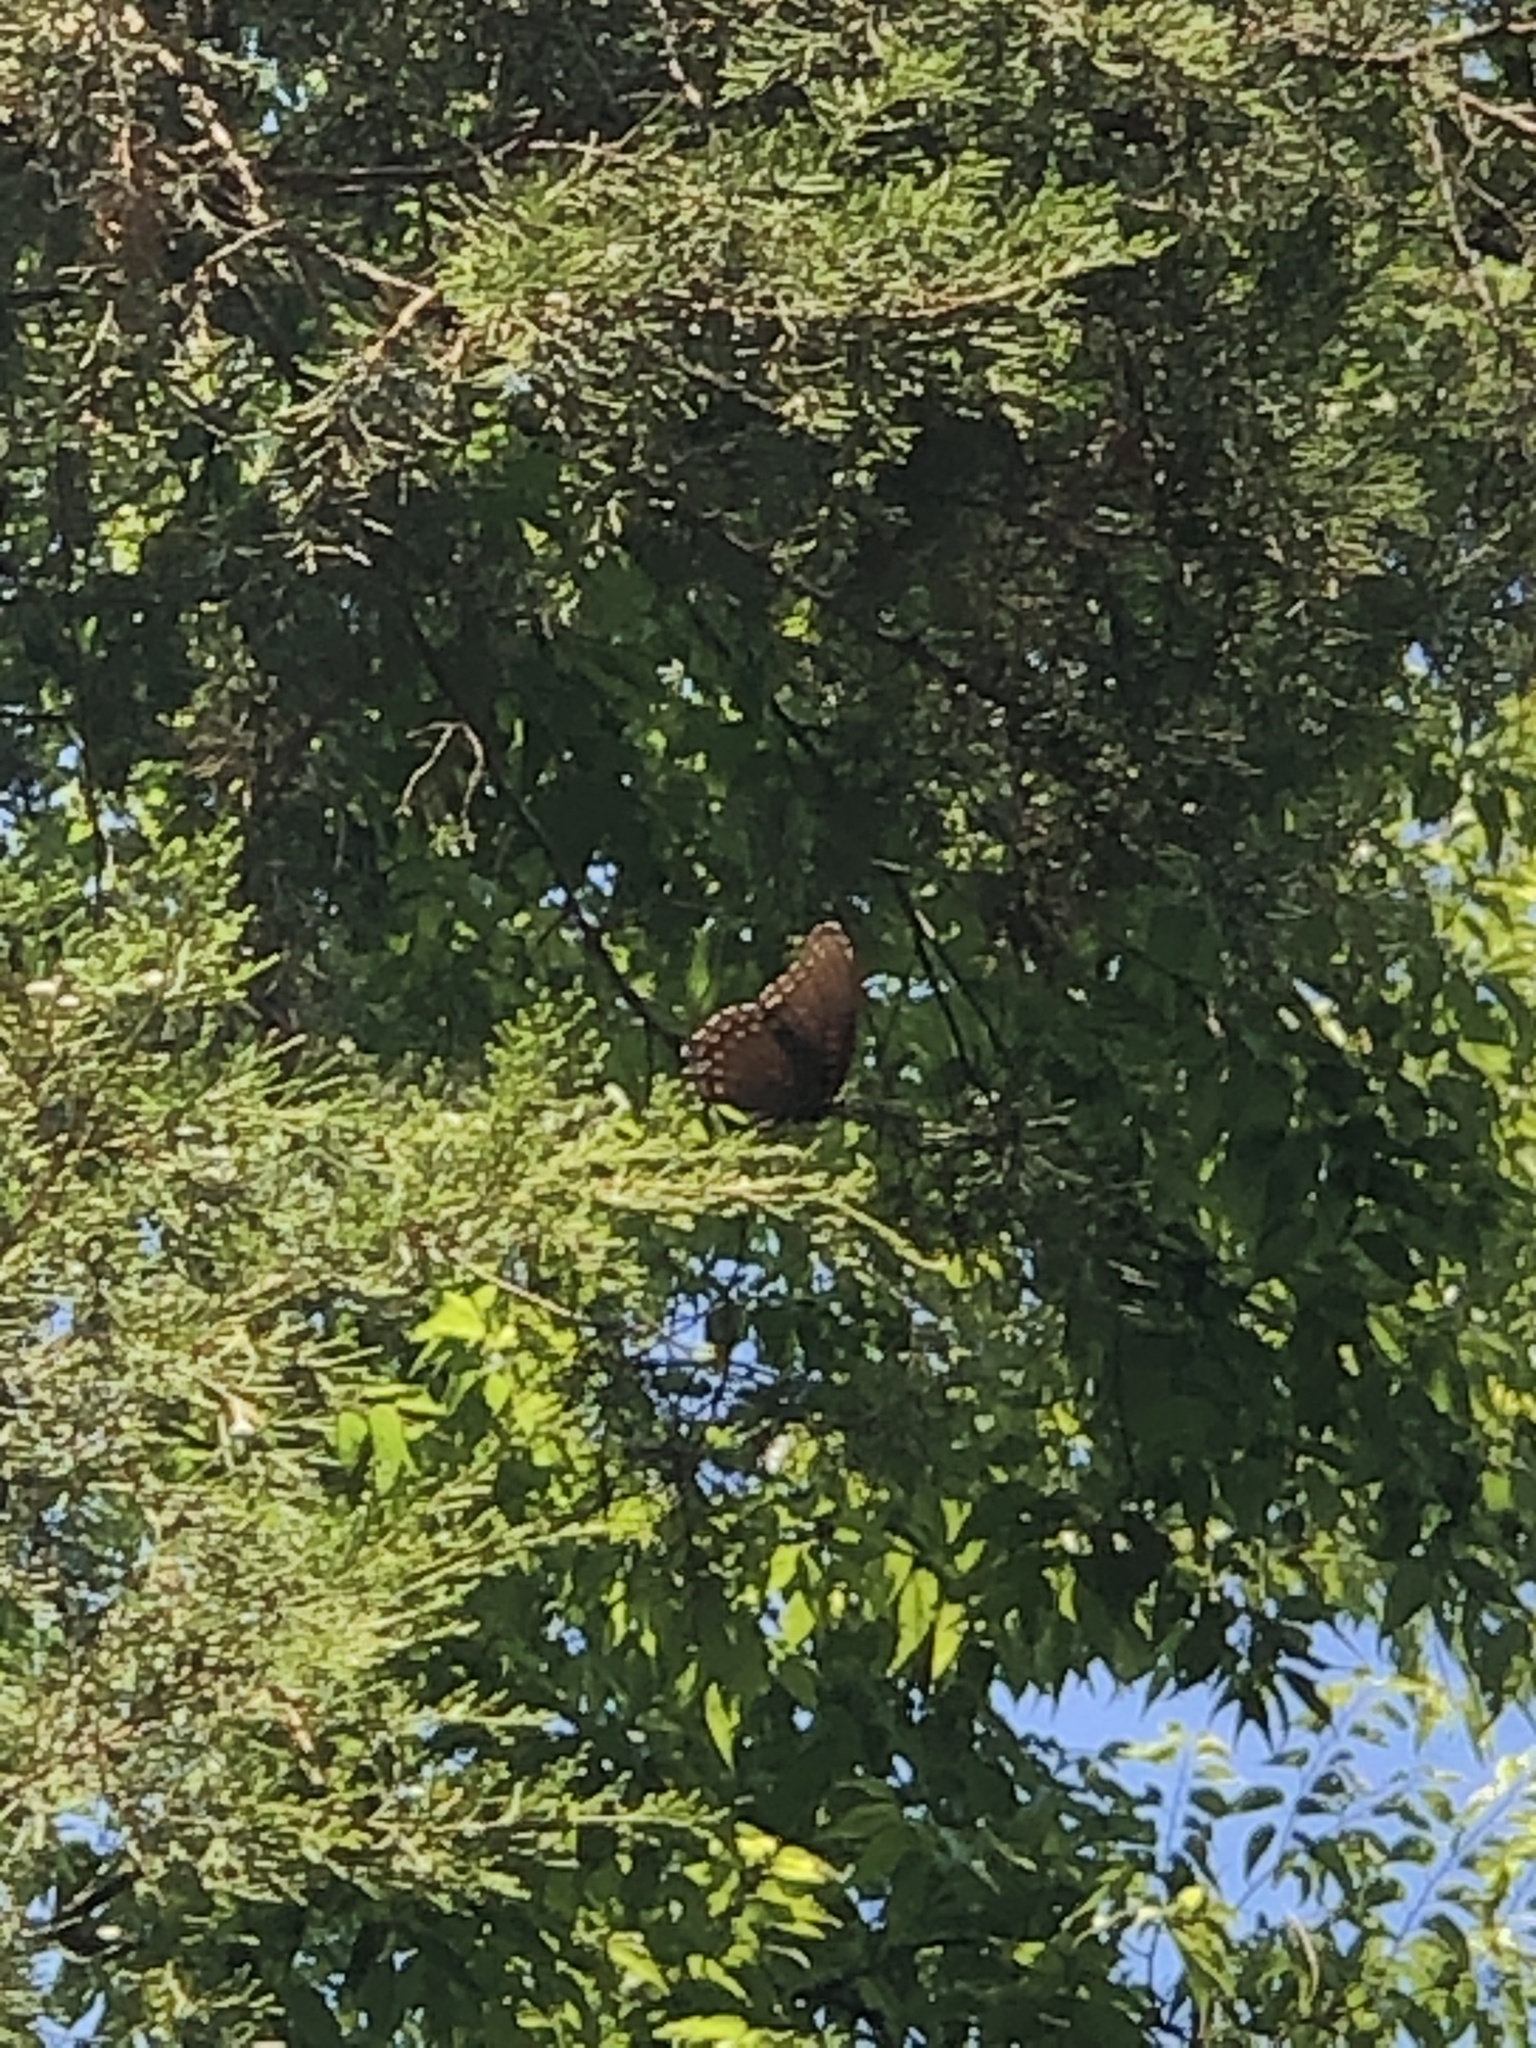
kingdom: Animalia
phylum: Arthropoda
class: Insecta
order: Lepidoptera
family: Nymphalidae
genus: Limenitis
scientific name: Limenitis astyanax
